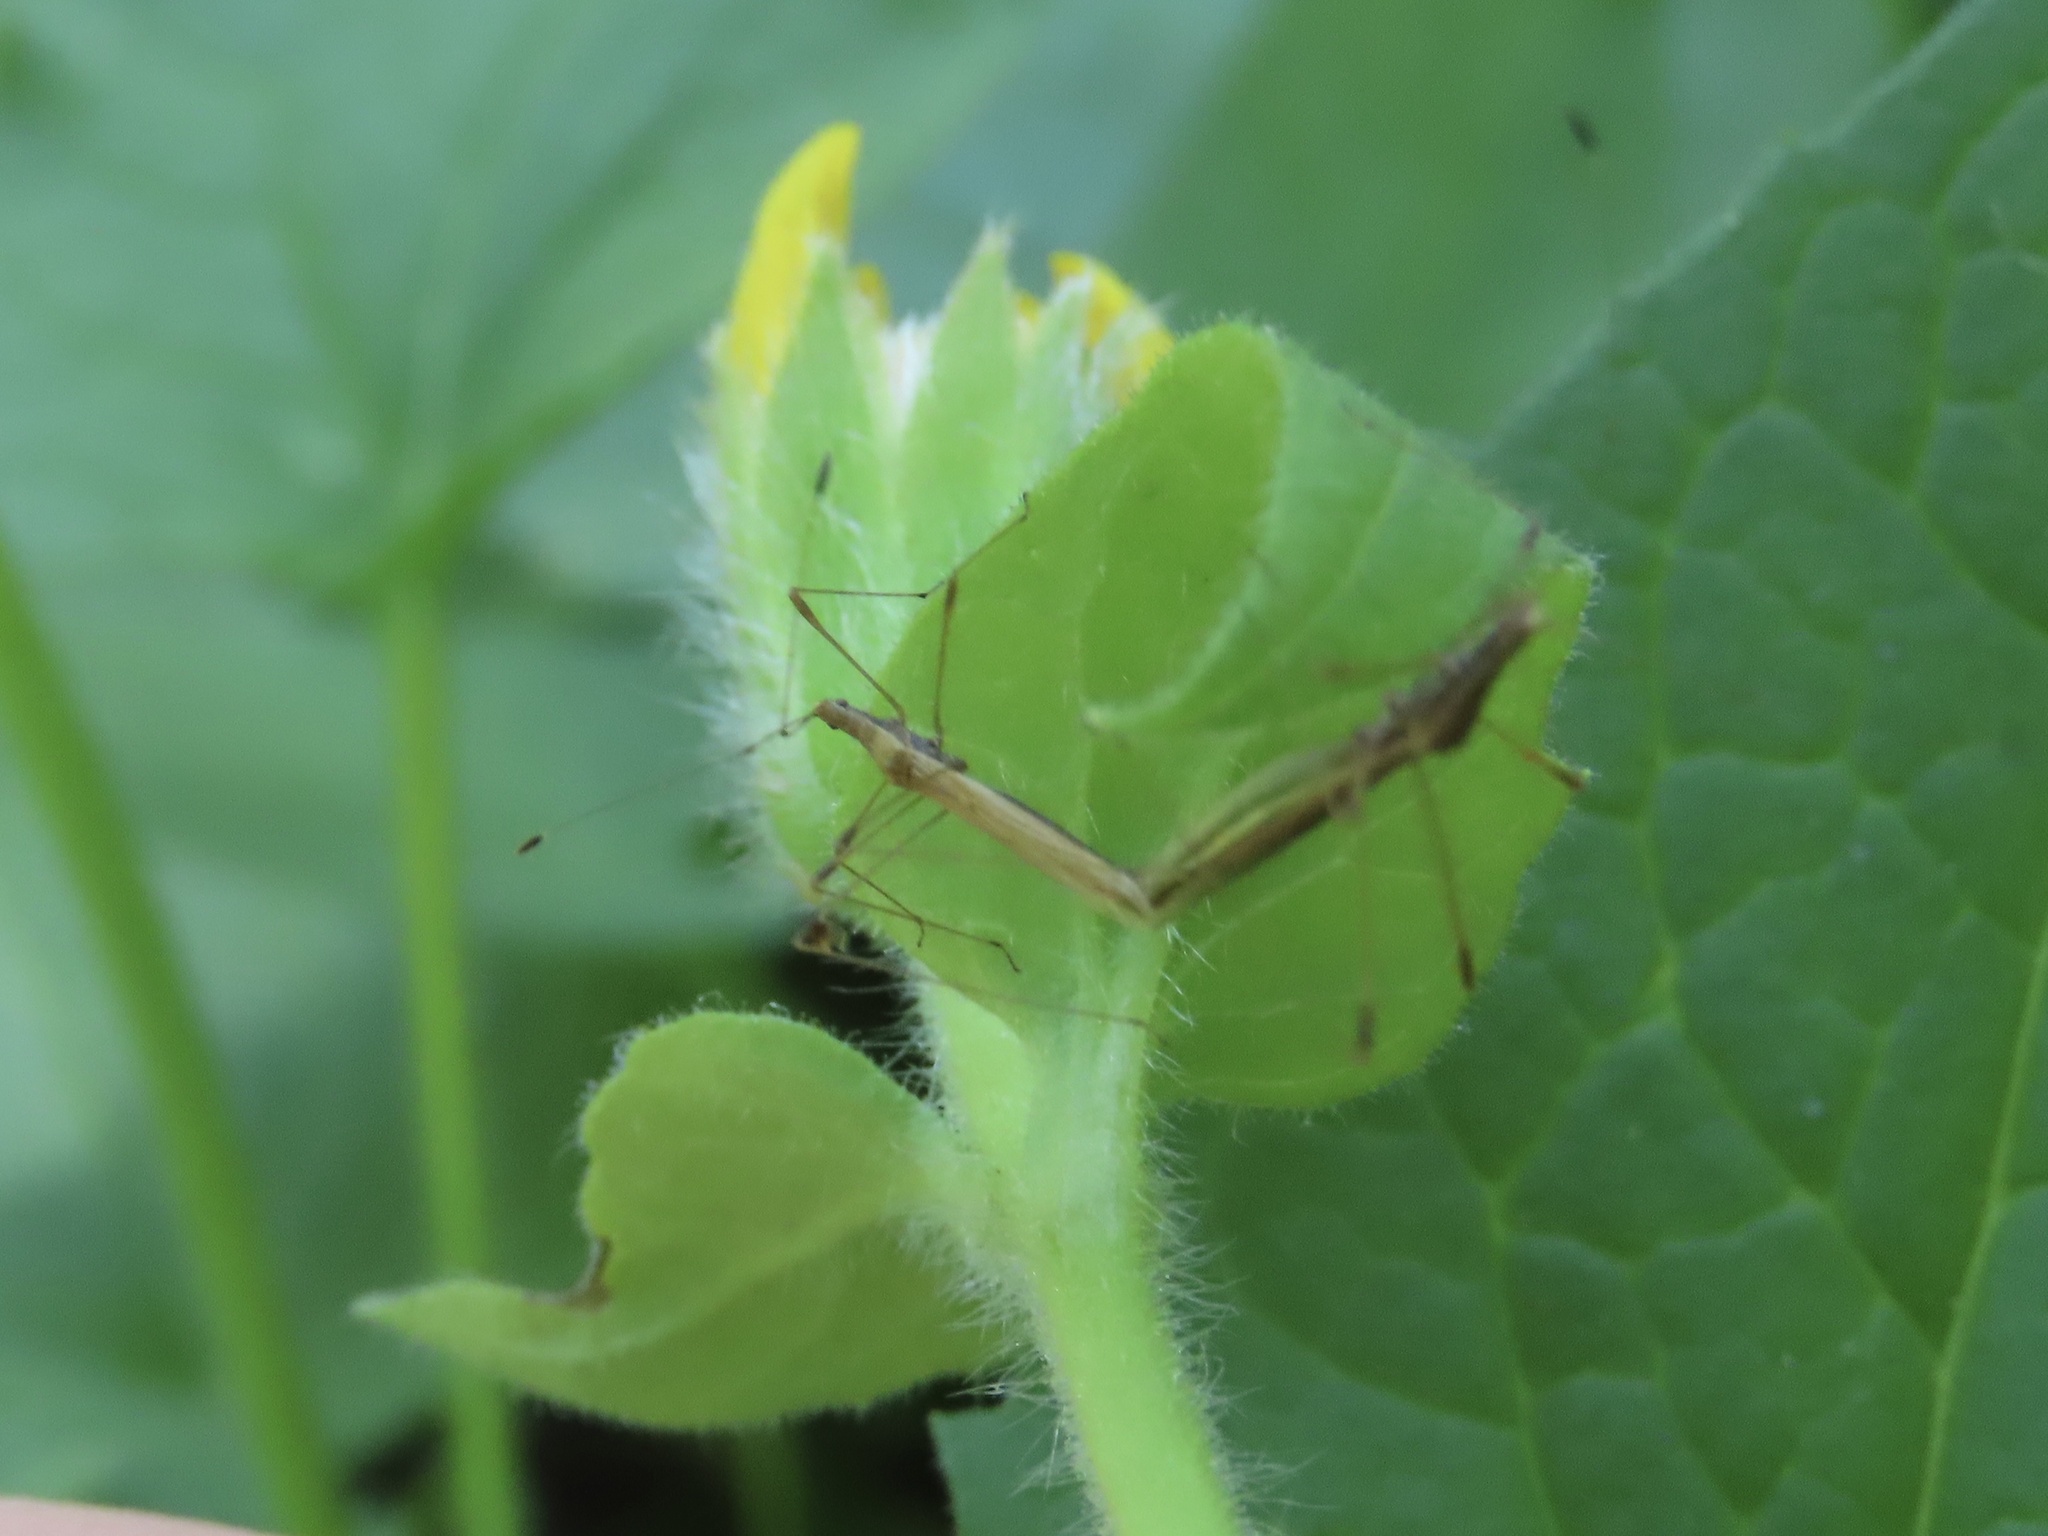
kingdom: Animalia
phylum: Arthropoda
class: Insecta
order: Hemiptera
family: Berytidae
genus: Neoneides
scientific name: Neoneides muticus
